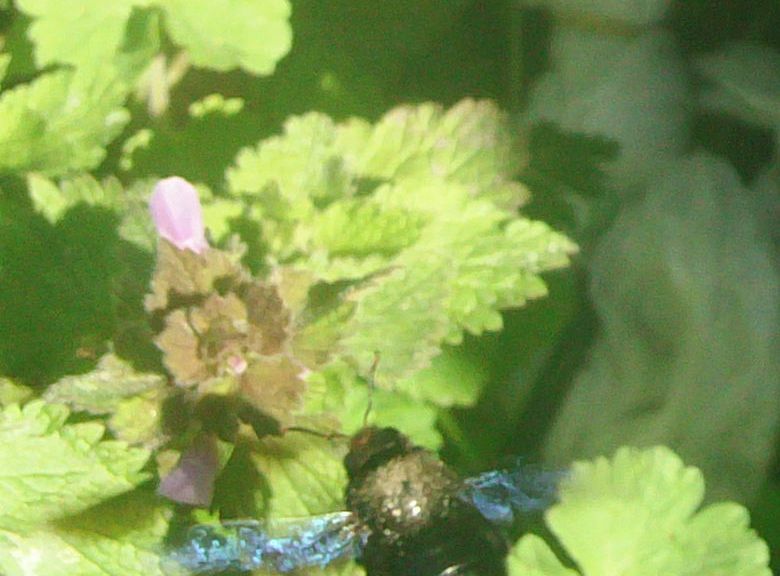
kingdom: Animalia
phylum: Arthropoda
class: Insecta
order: Hymenoptera
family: Apidae
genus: Xylocopa
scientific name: Xylocopa violacea
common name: Violet carpenter bee
